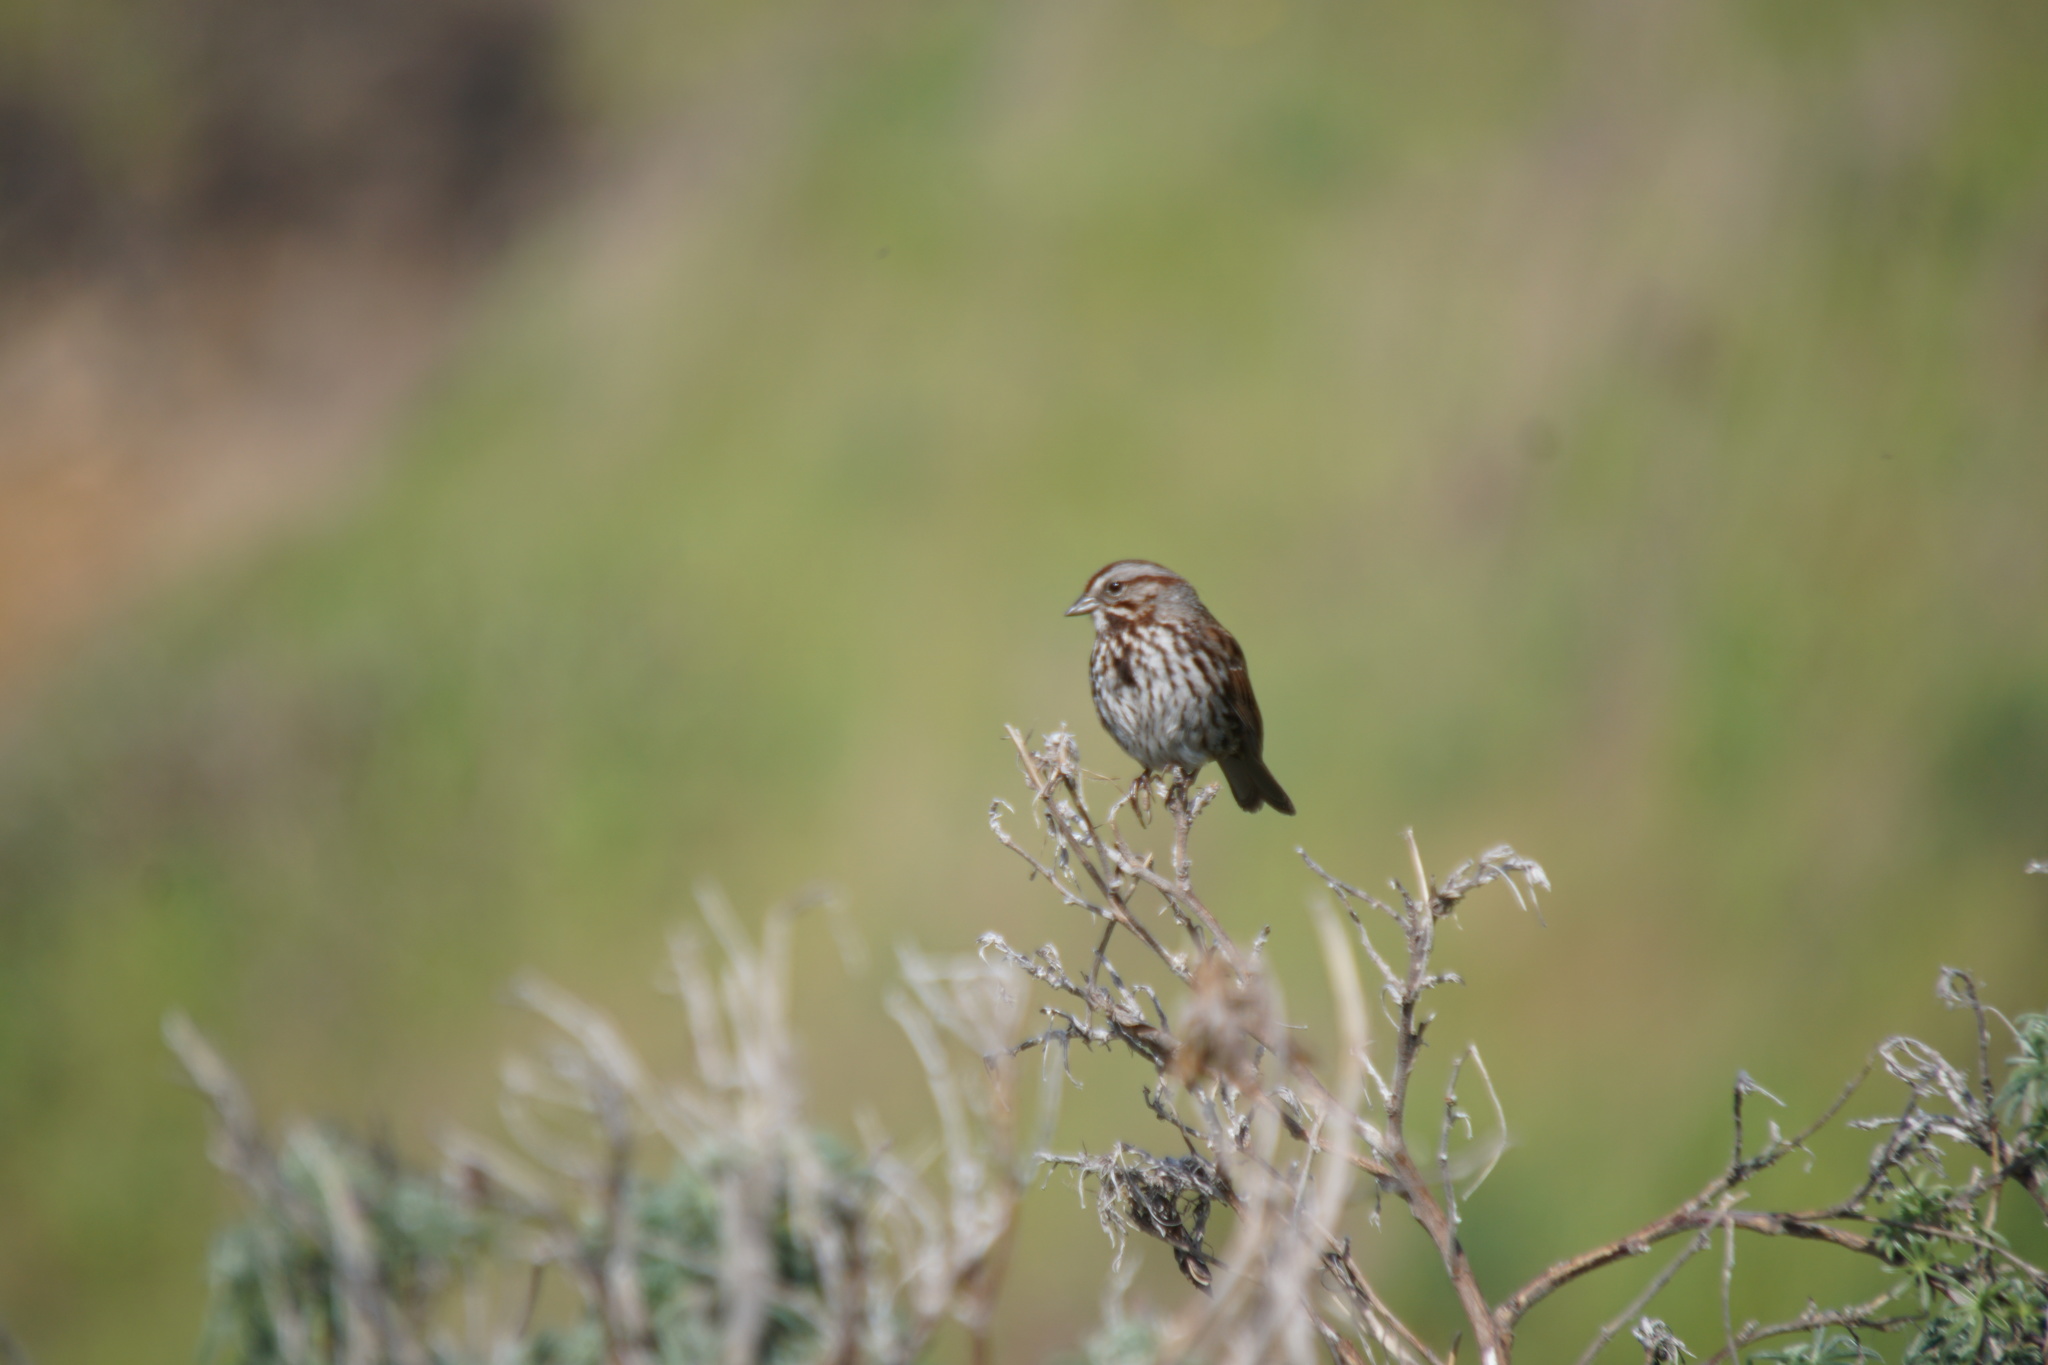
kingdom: Animalia
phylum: Chordata
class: Aves
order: Passeriformes
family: Passerellidae
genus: Melospiza
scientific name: Melospiza melodia
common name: Song sparrow
